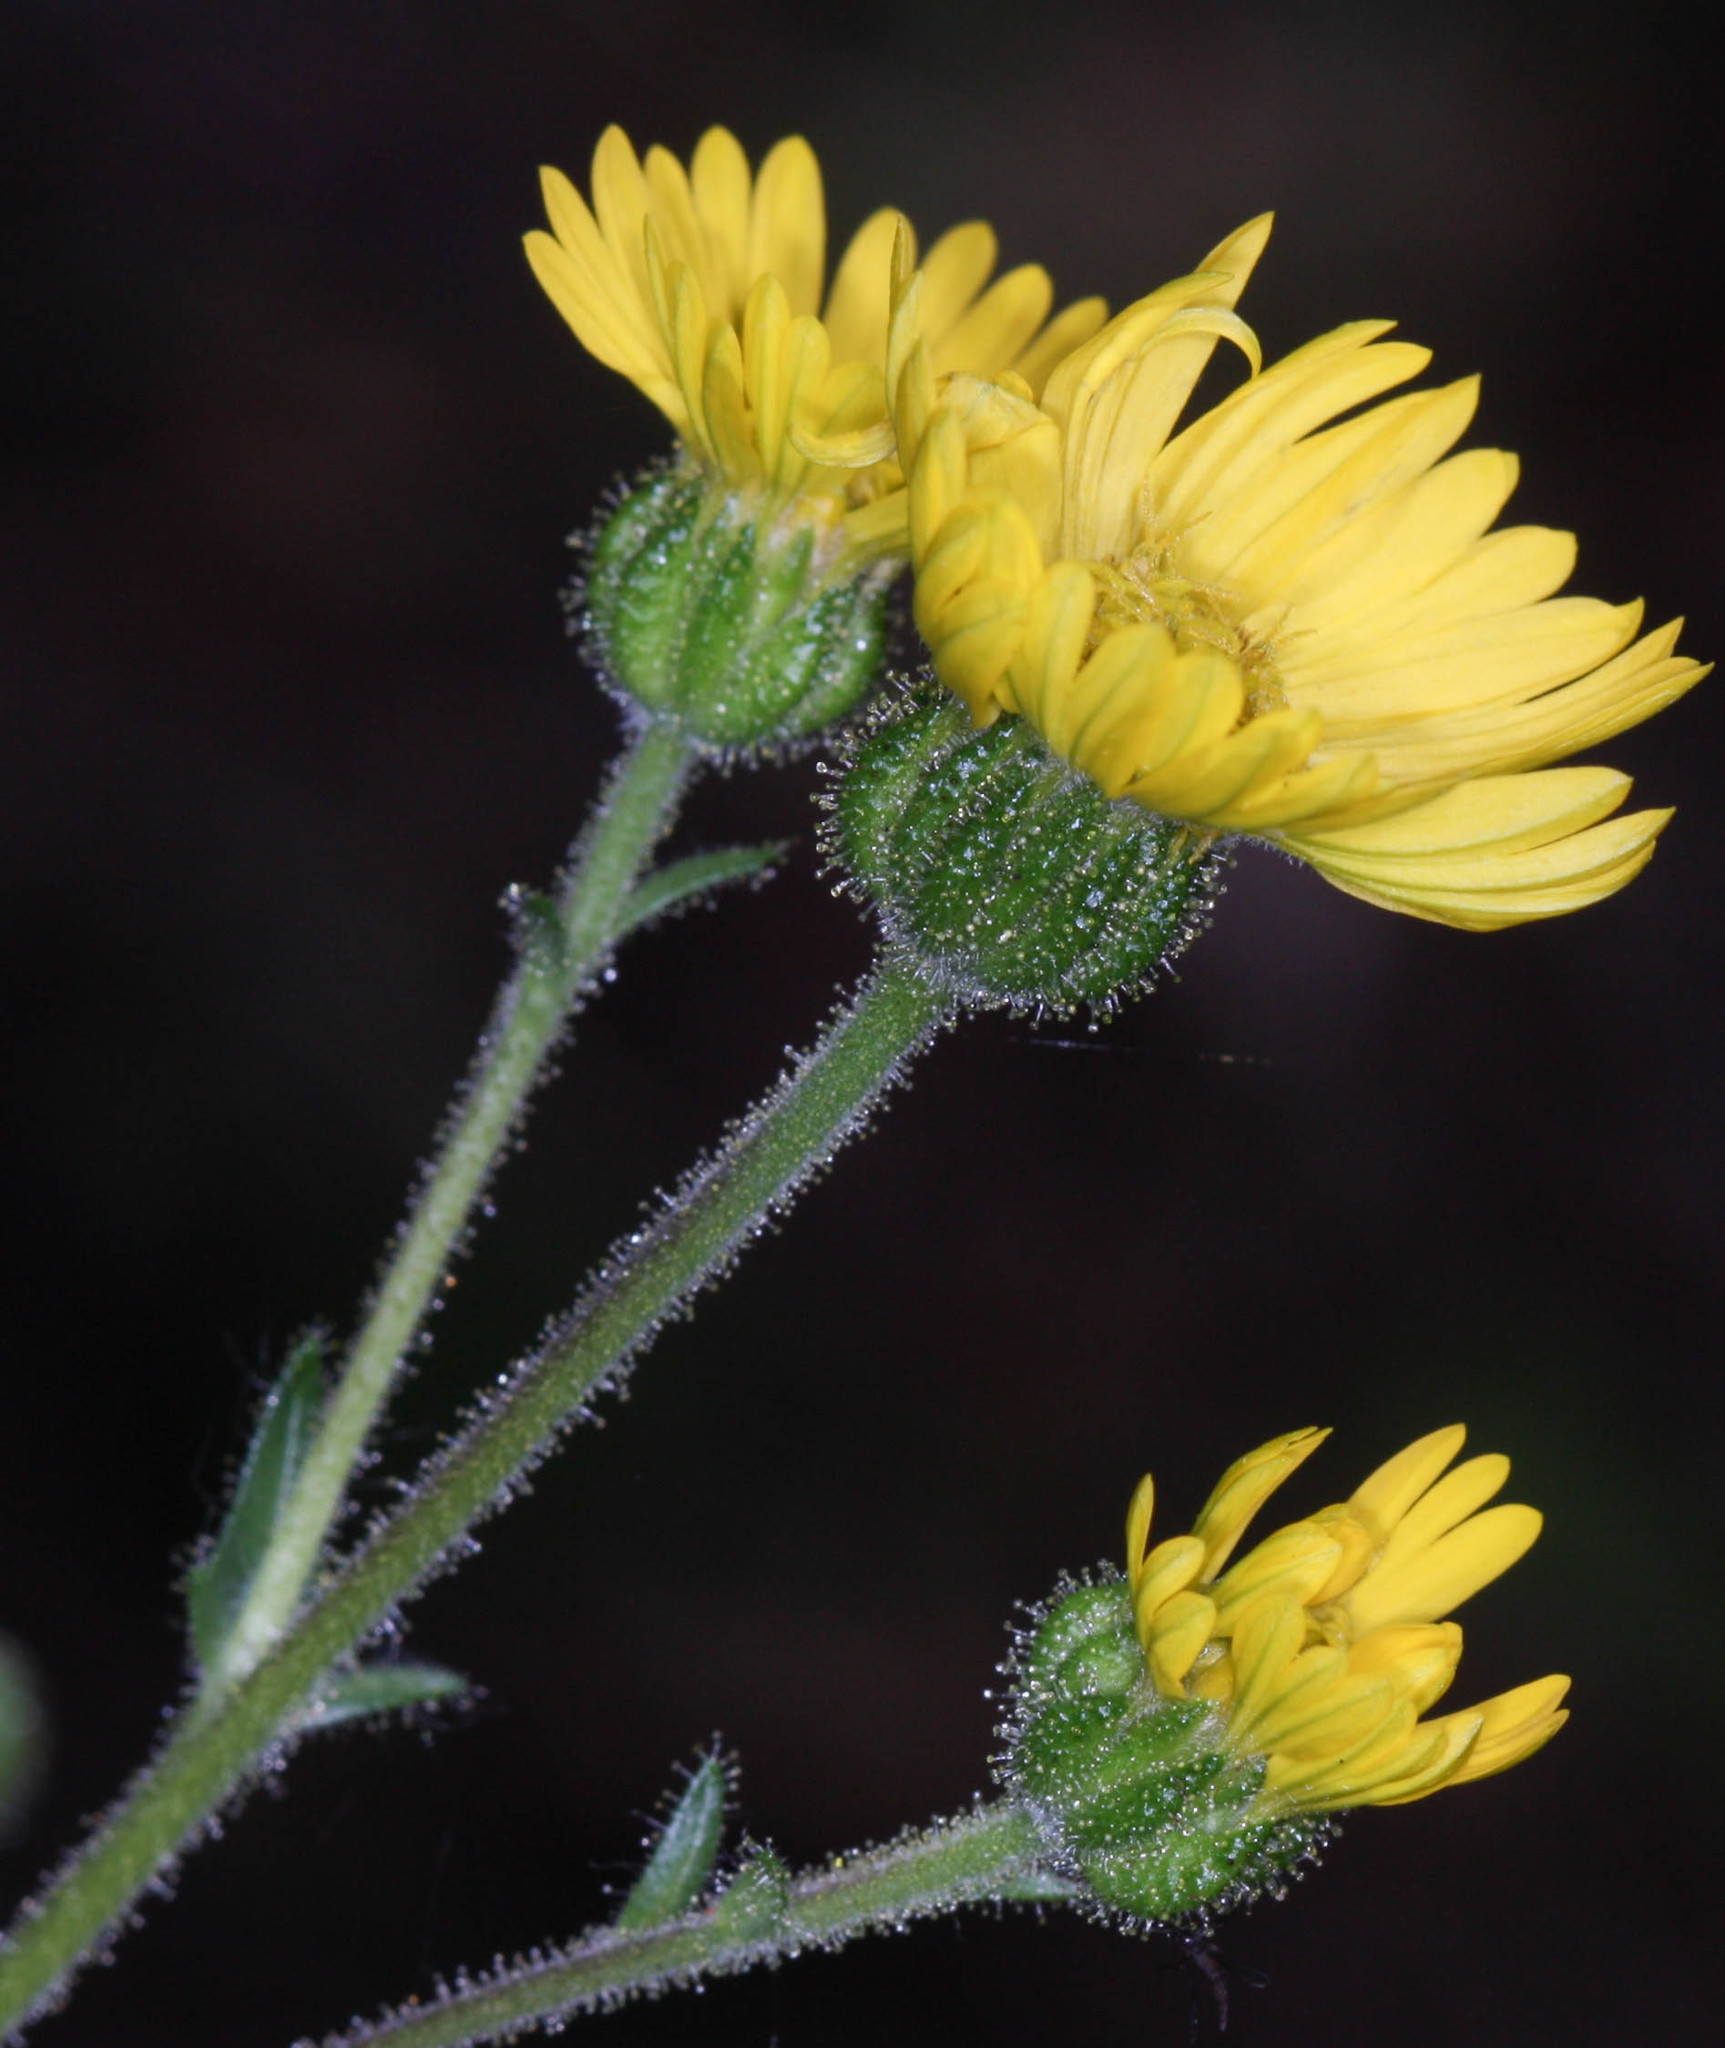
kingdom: Plantae
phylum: Tracheophyta
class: Magnoliopsida
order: Asterales
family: Asteraceae
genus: Anisocarpus
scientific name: Anisocarpus madioides
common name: Woodland madia
